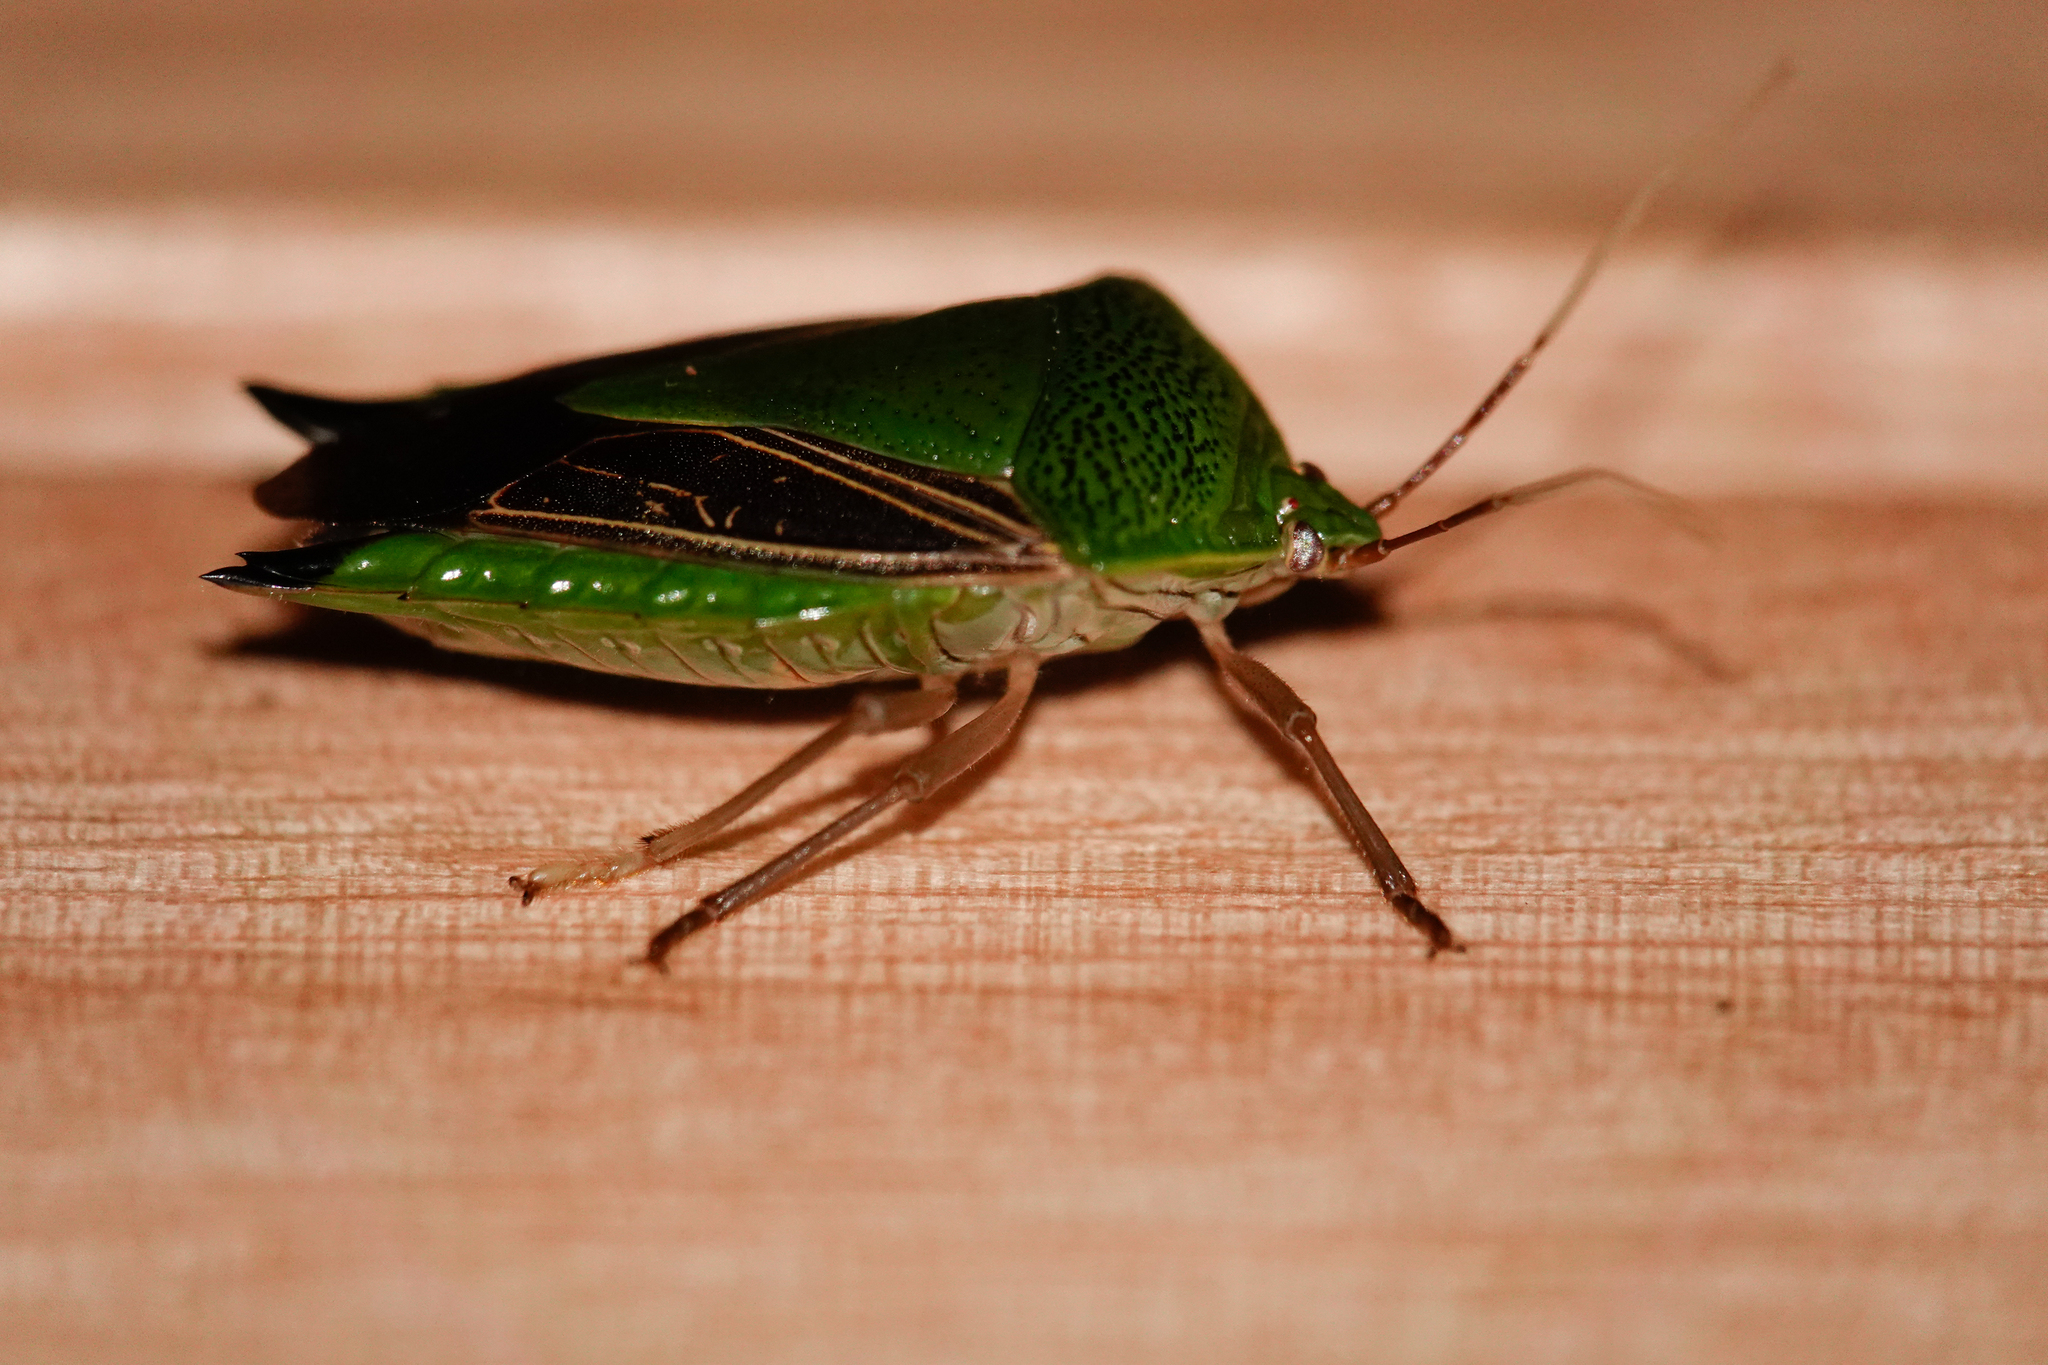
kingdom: Animalia
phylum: Arthropoda
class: Insecta
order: Hemiptera
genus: Pygoda
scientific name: Pygoda polita
